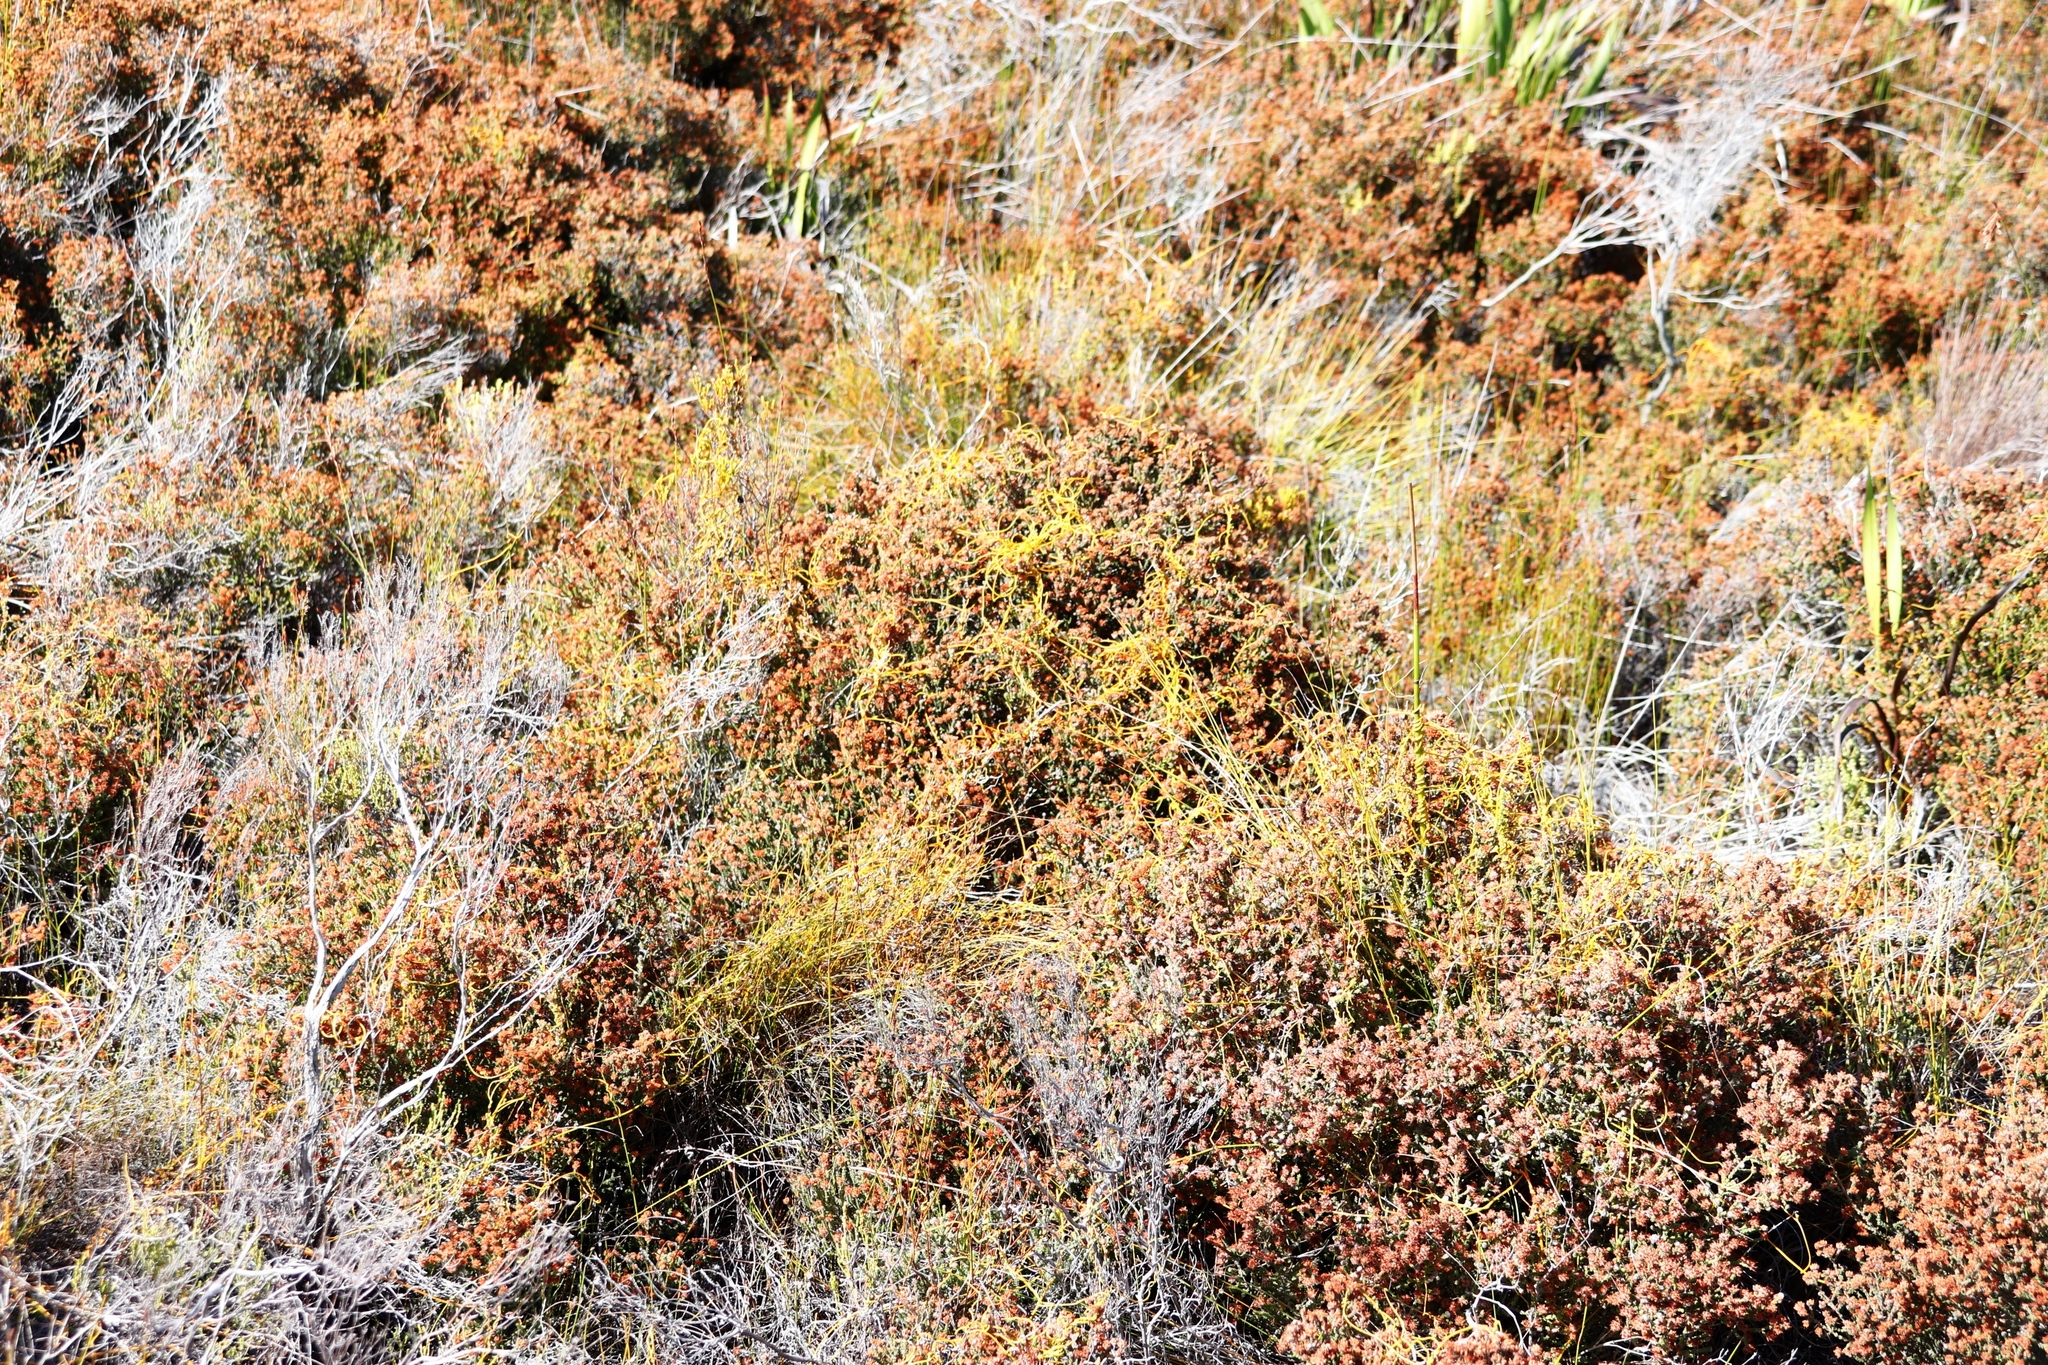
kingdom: Plantae
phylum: Tracheophyta
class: Magnoliopsida
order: Laurales
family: Lauraceae
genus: Cassytha
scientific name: Cassytha ciliolata
